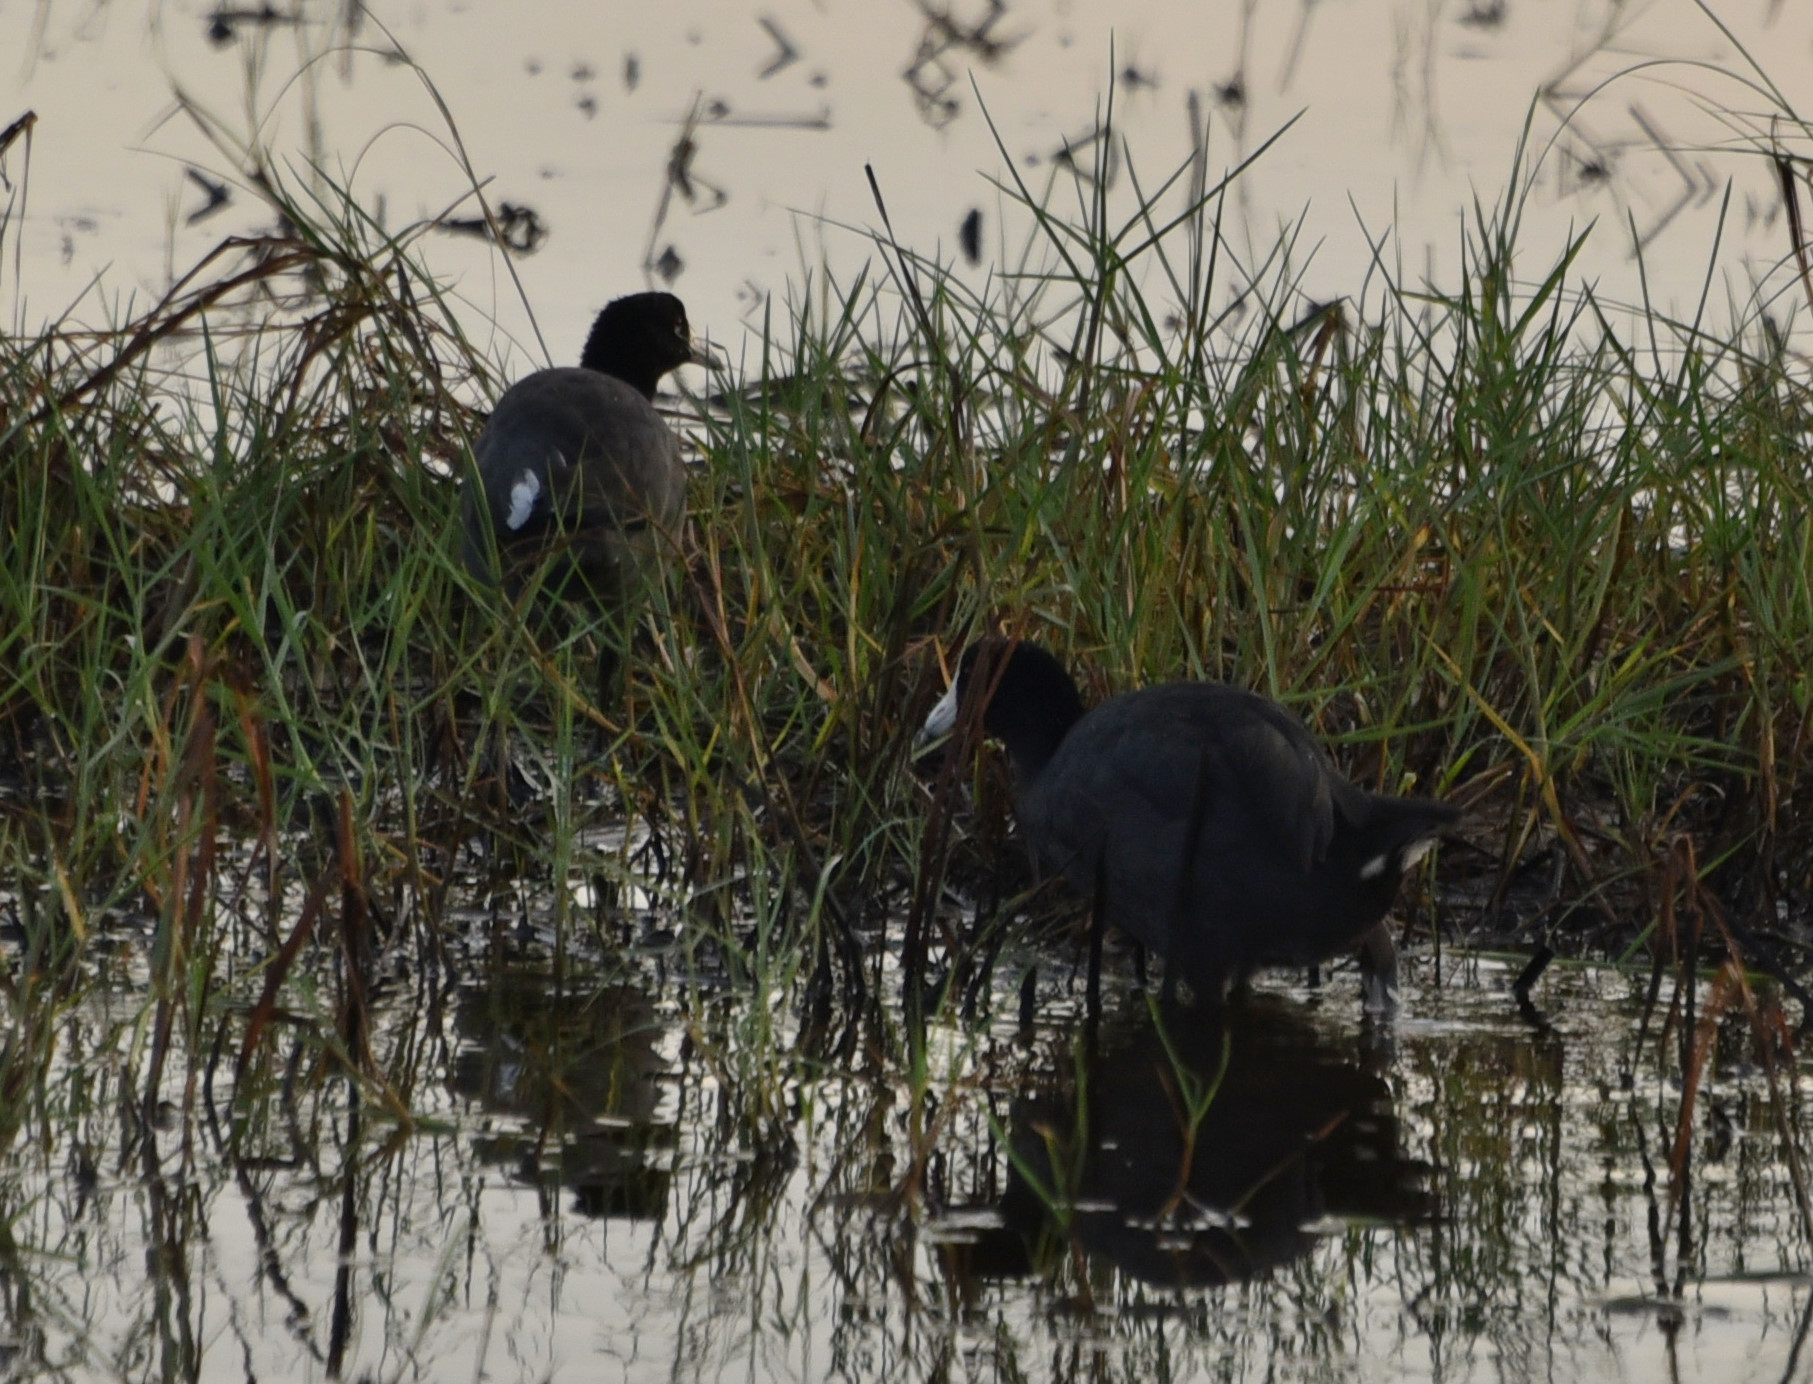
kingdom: Animalia
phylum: Chordata
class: Aves
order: Gruiformes
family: Rallidae
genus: Fulica
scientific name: Fulica americana
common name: American coot
